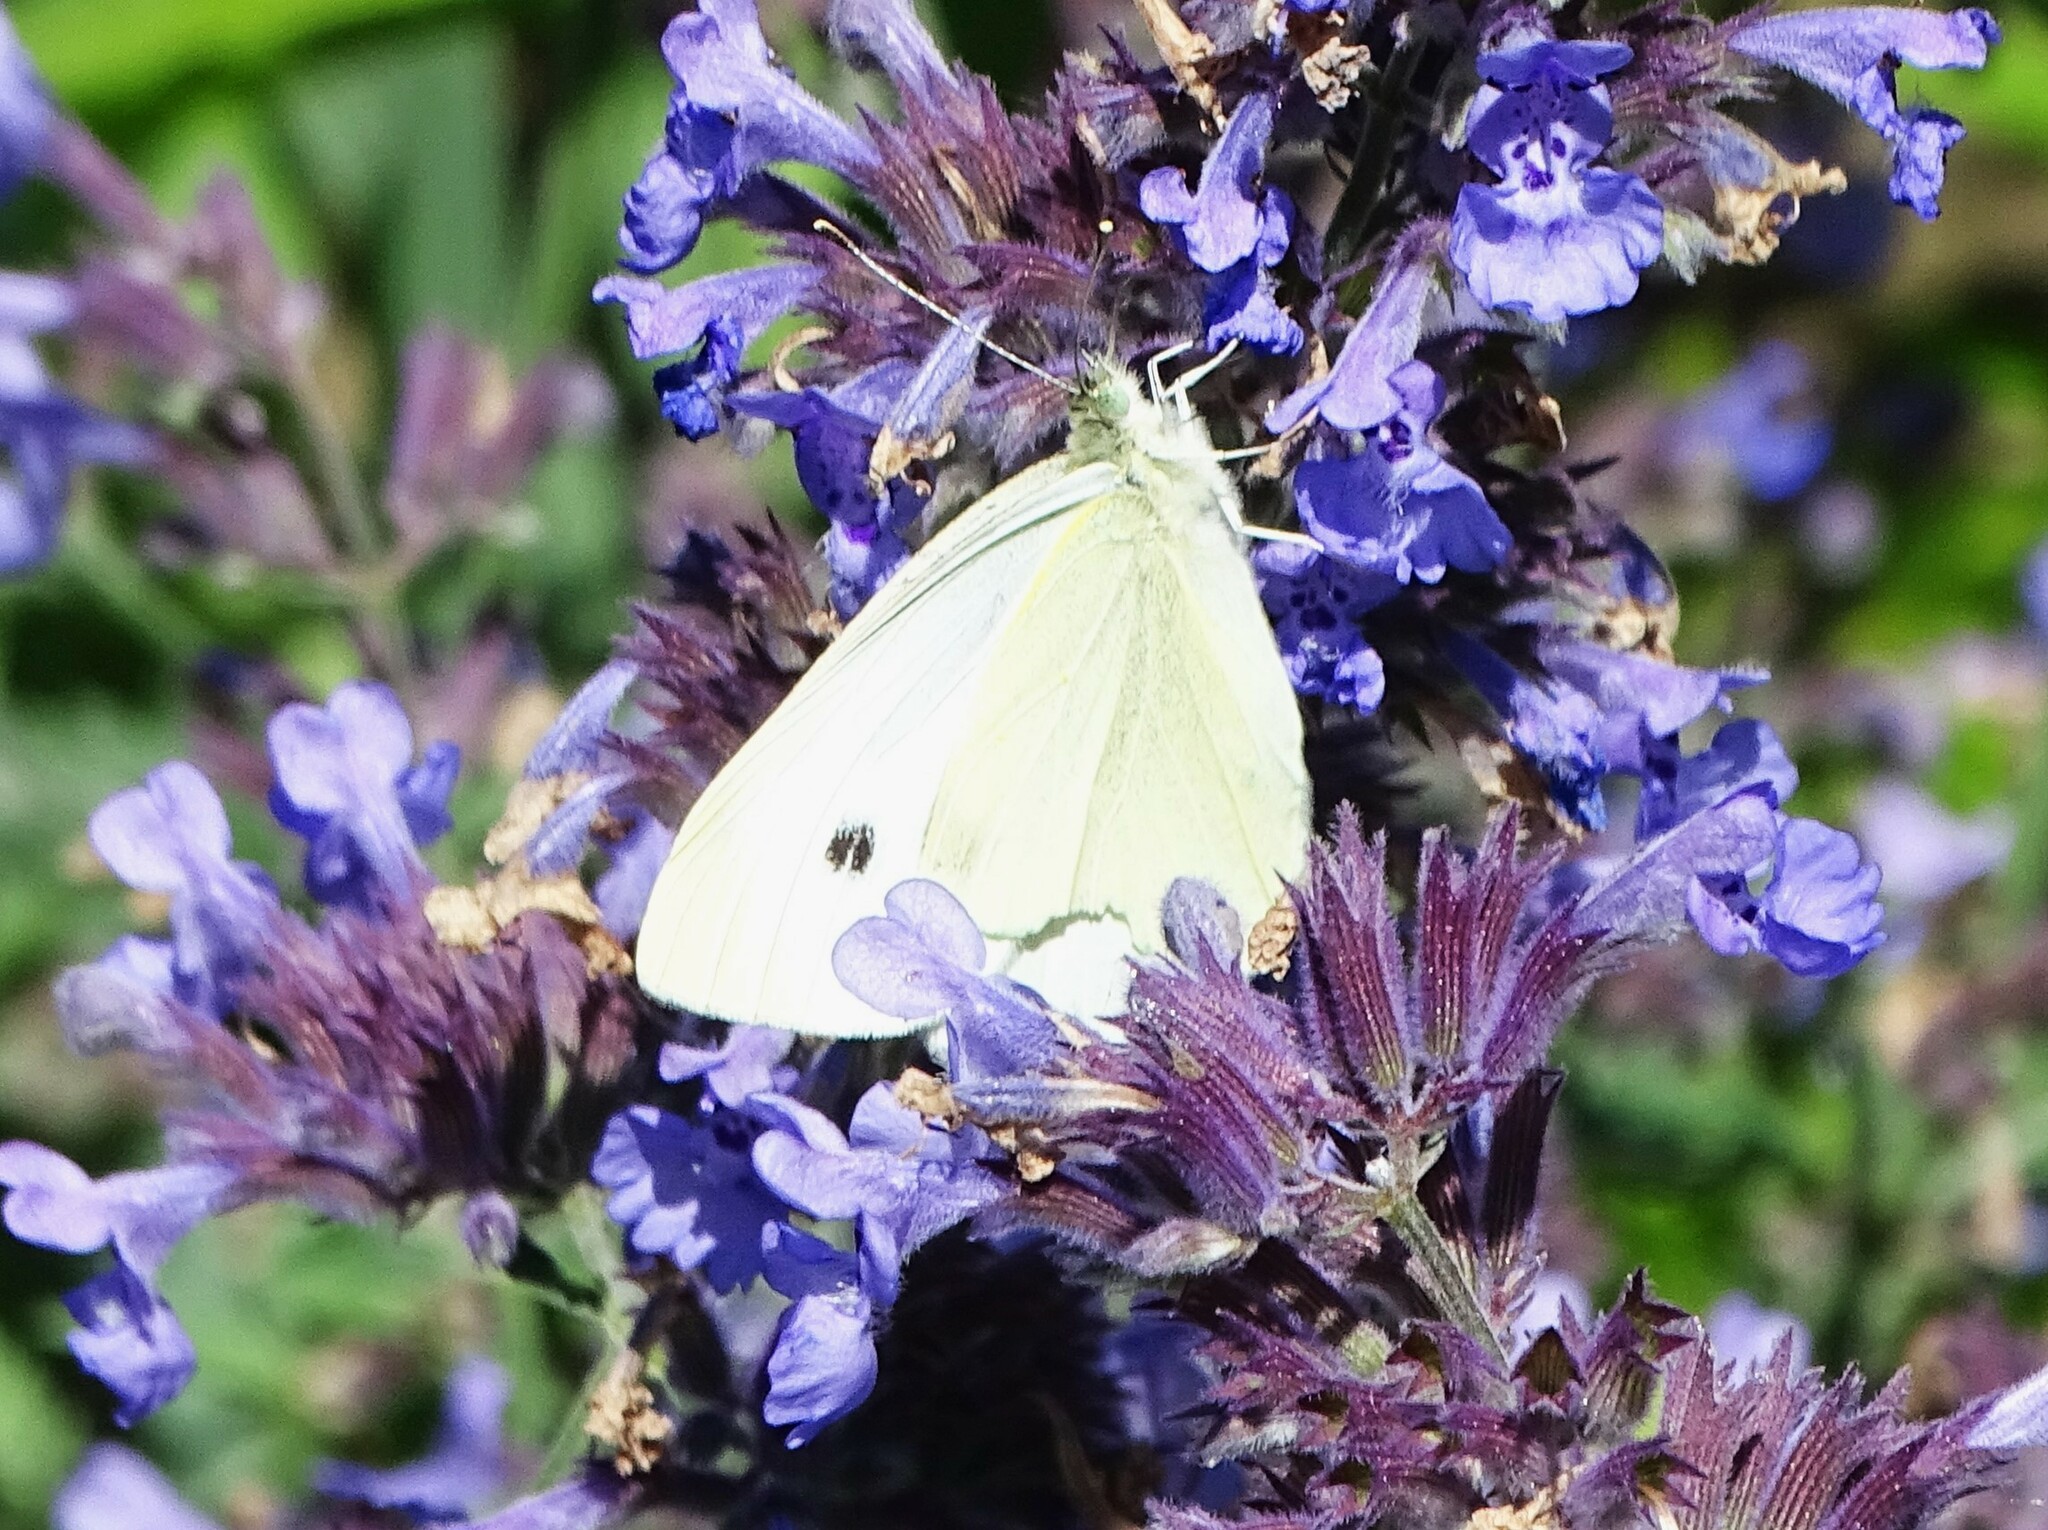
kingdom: Animalia
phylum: Arthropoda
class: Insecta
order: Lepidoptera
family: Pieridae
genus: Pieris
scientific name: Pieris rapae
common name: Small white
